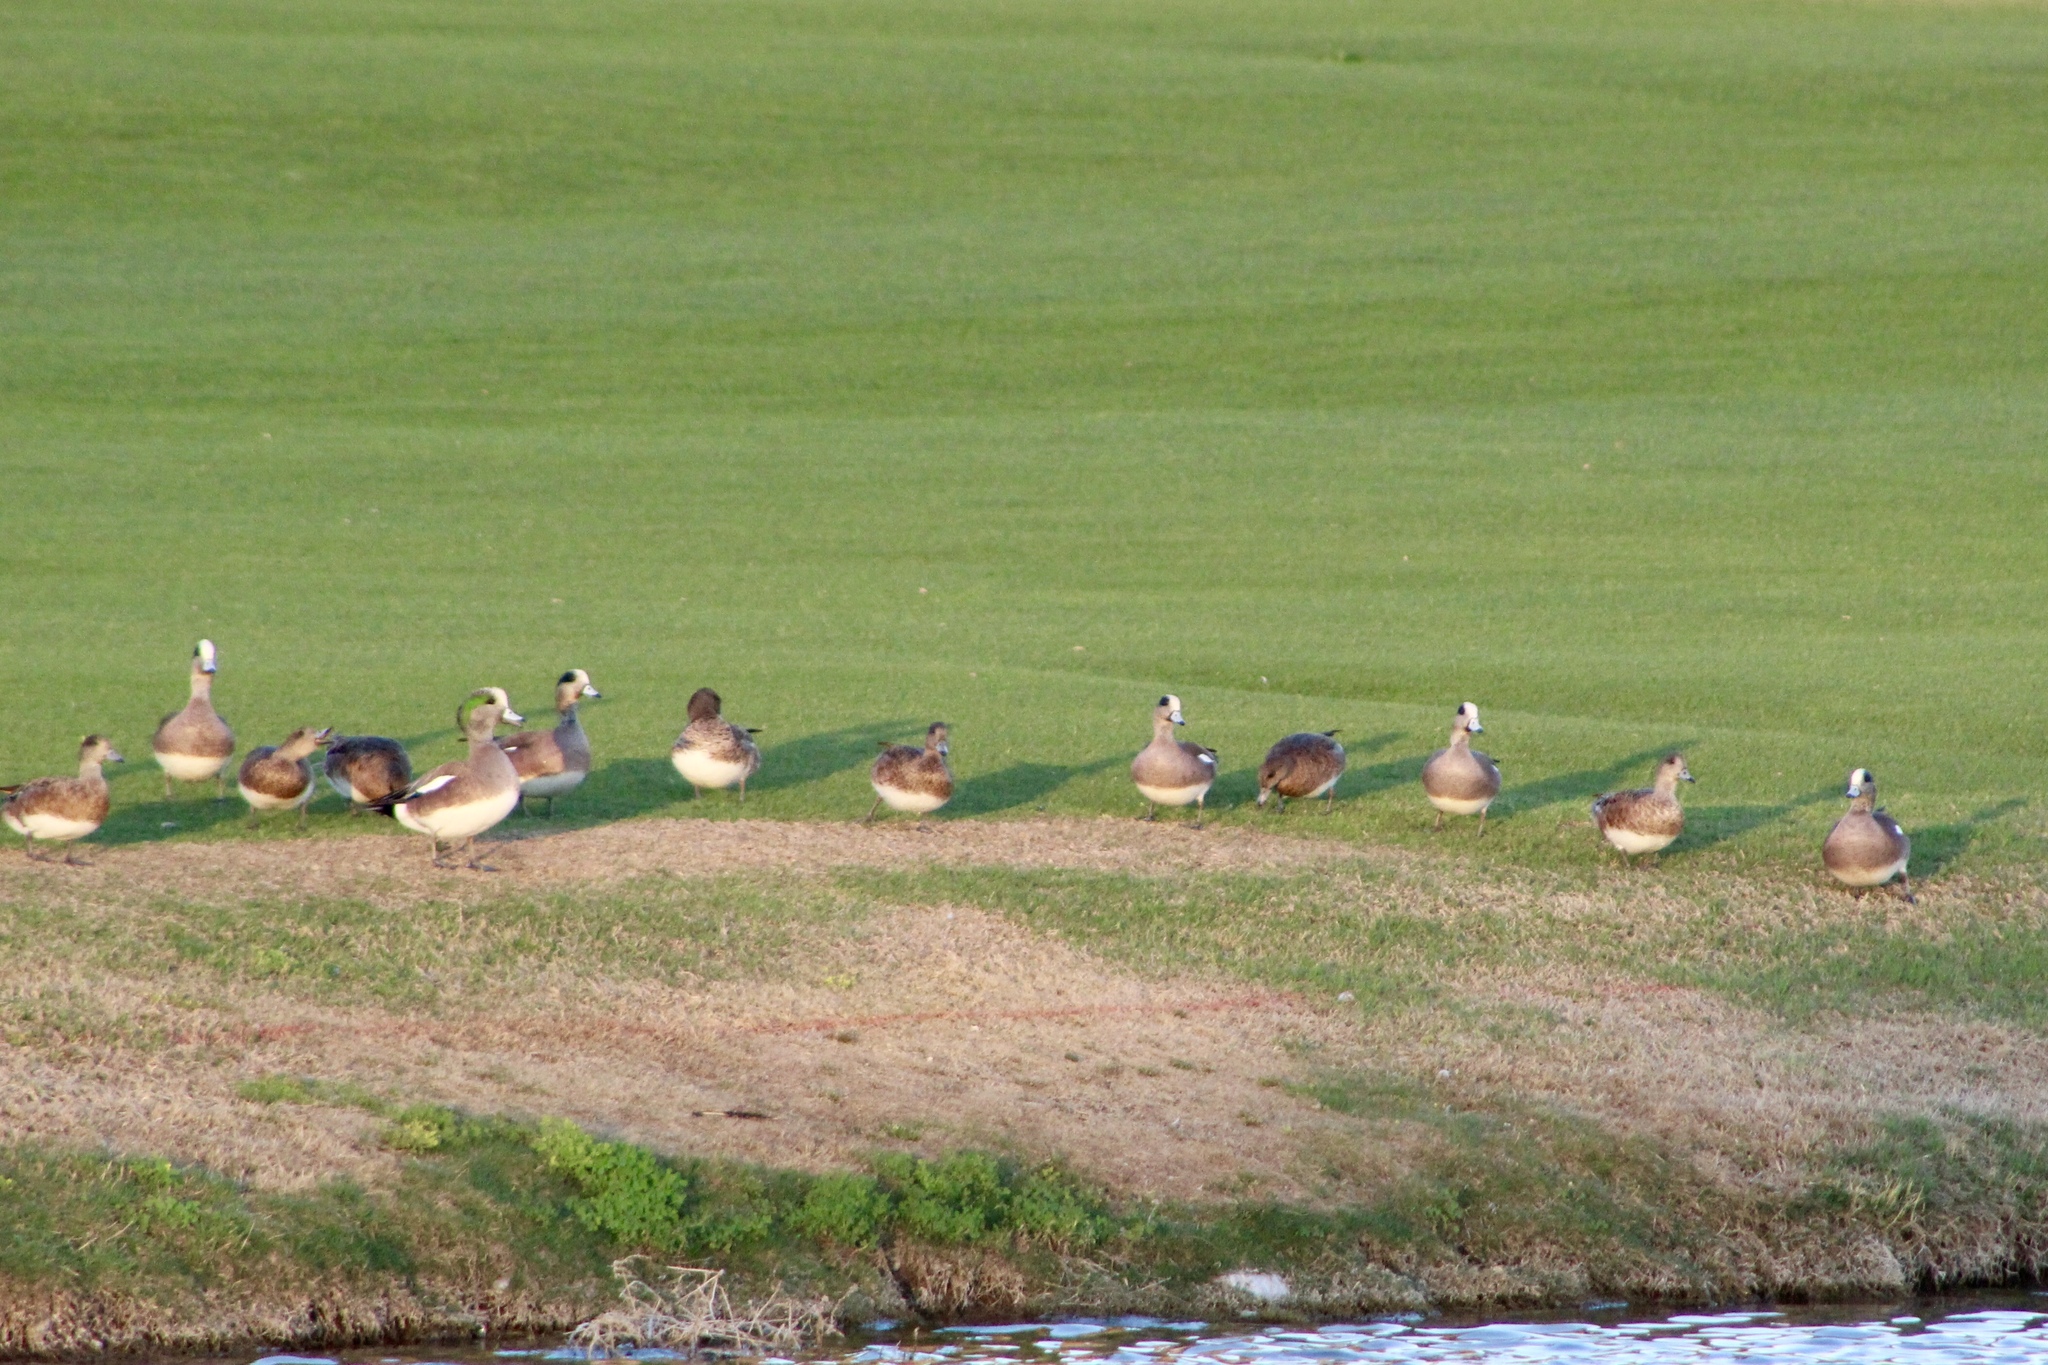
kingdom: Animalia
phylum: Chordata
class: Aves
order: Anseriformes
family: Anatidae
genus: Mareca
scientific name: Mareca americana
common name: American wigeon
